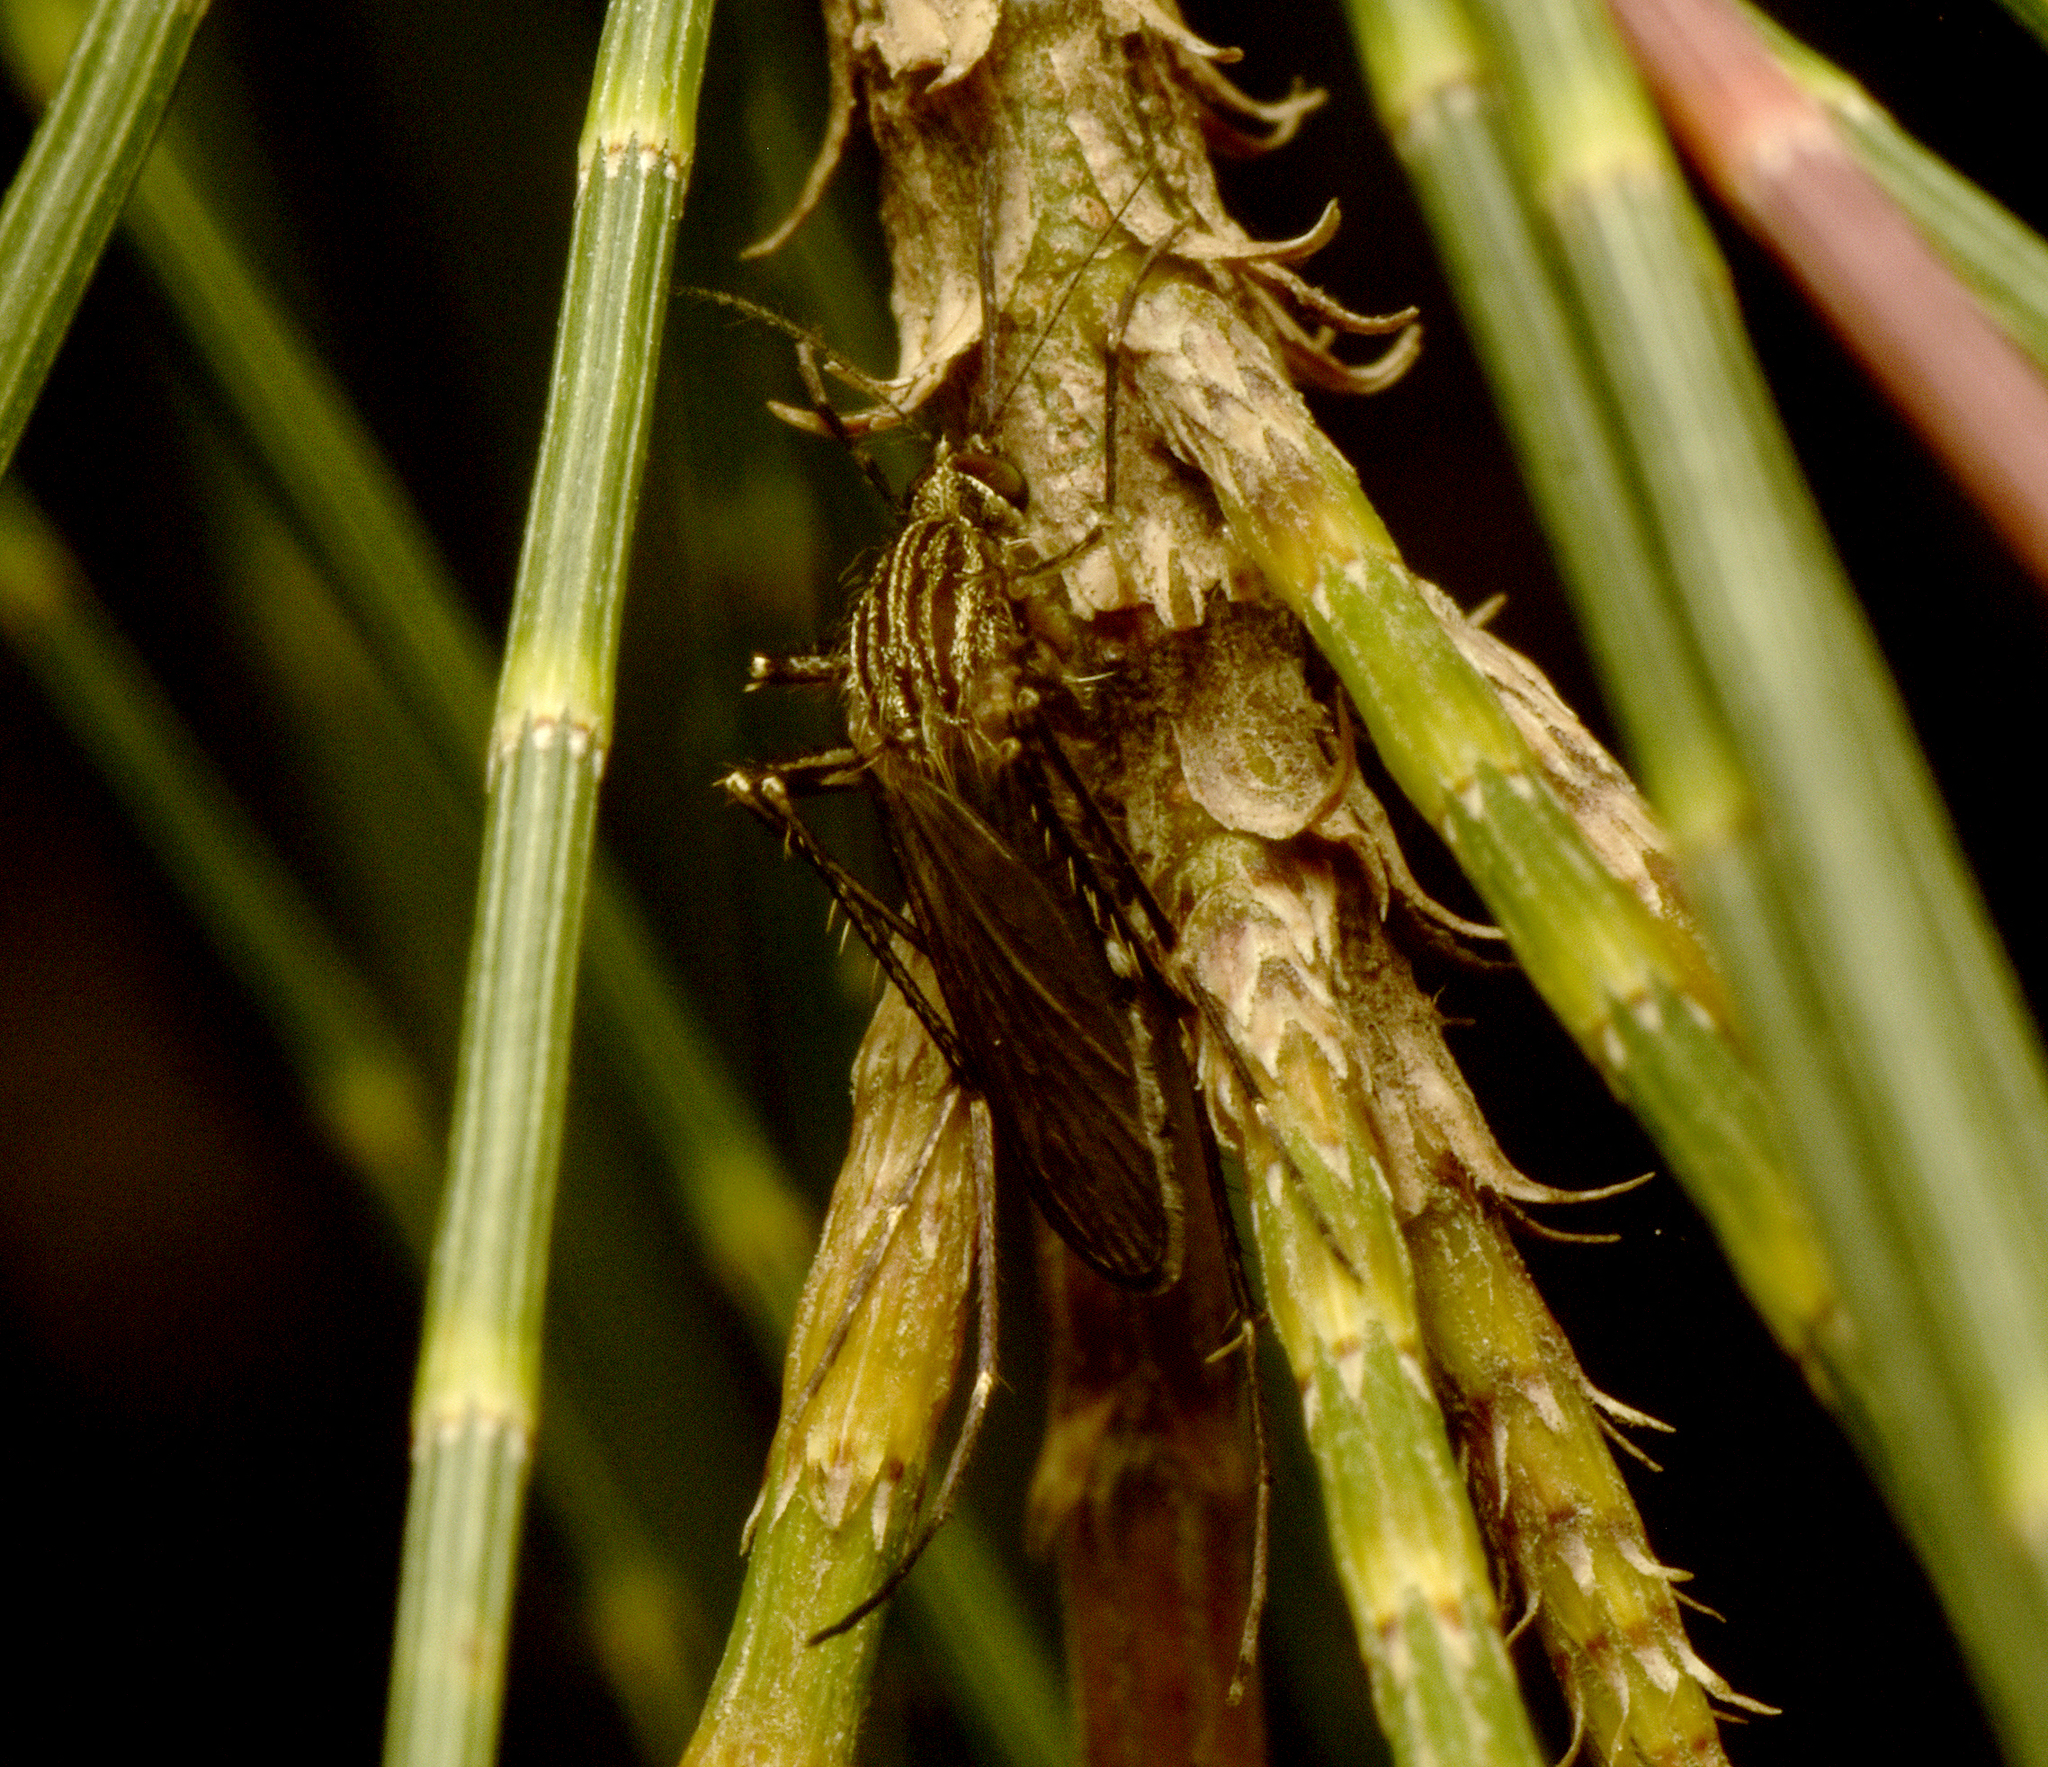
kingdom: Animalia
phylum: Arthropoda
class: Insecta
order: Diptera
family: Culicidae
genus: Coquillettidia
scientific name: Coquillettidia linealis
